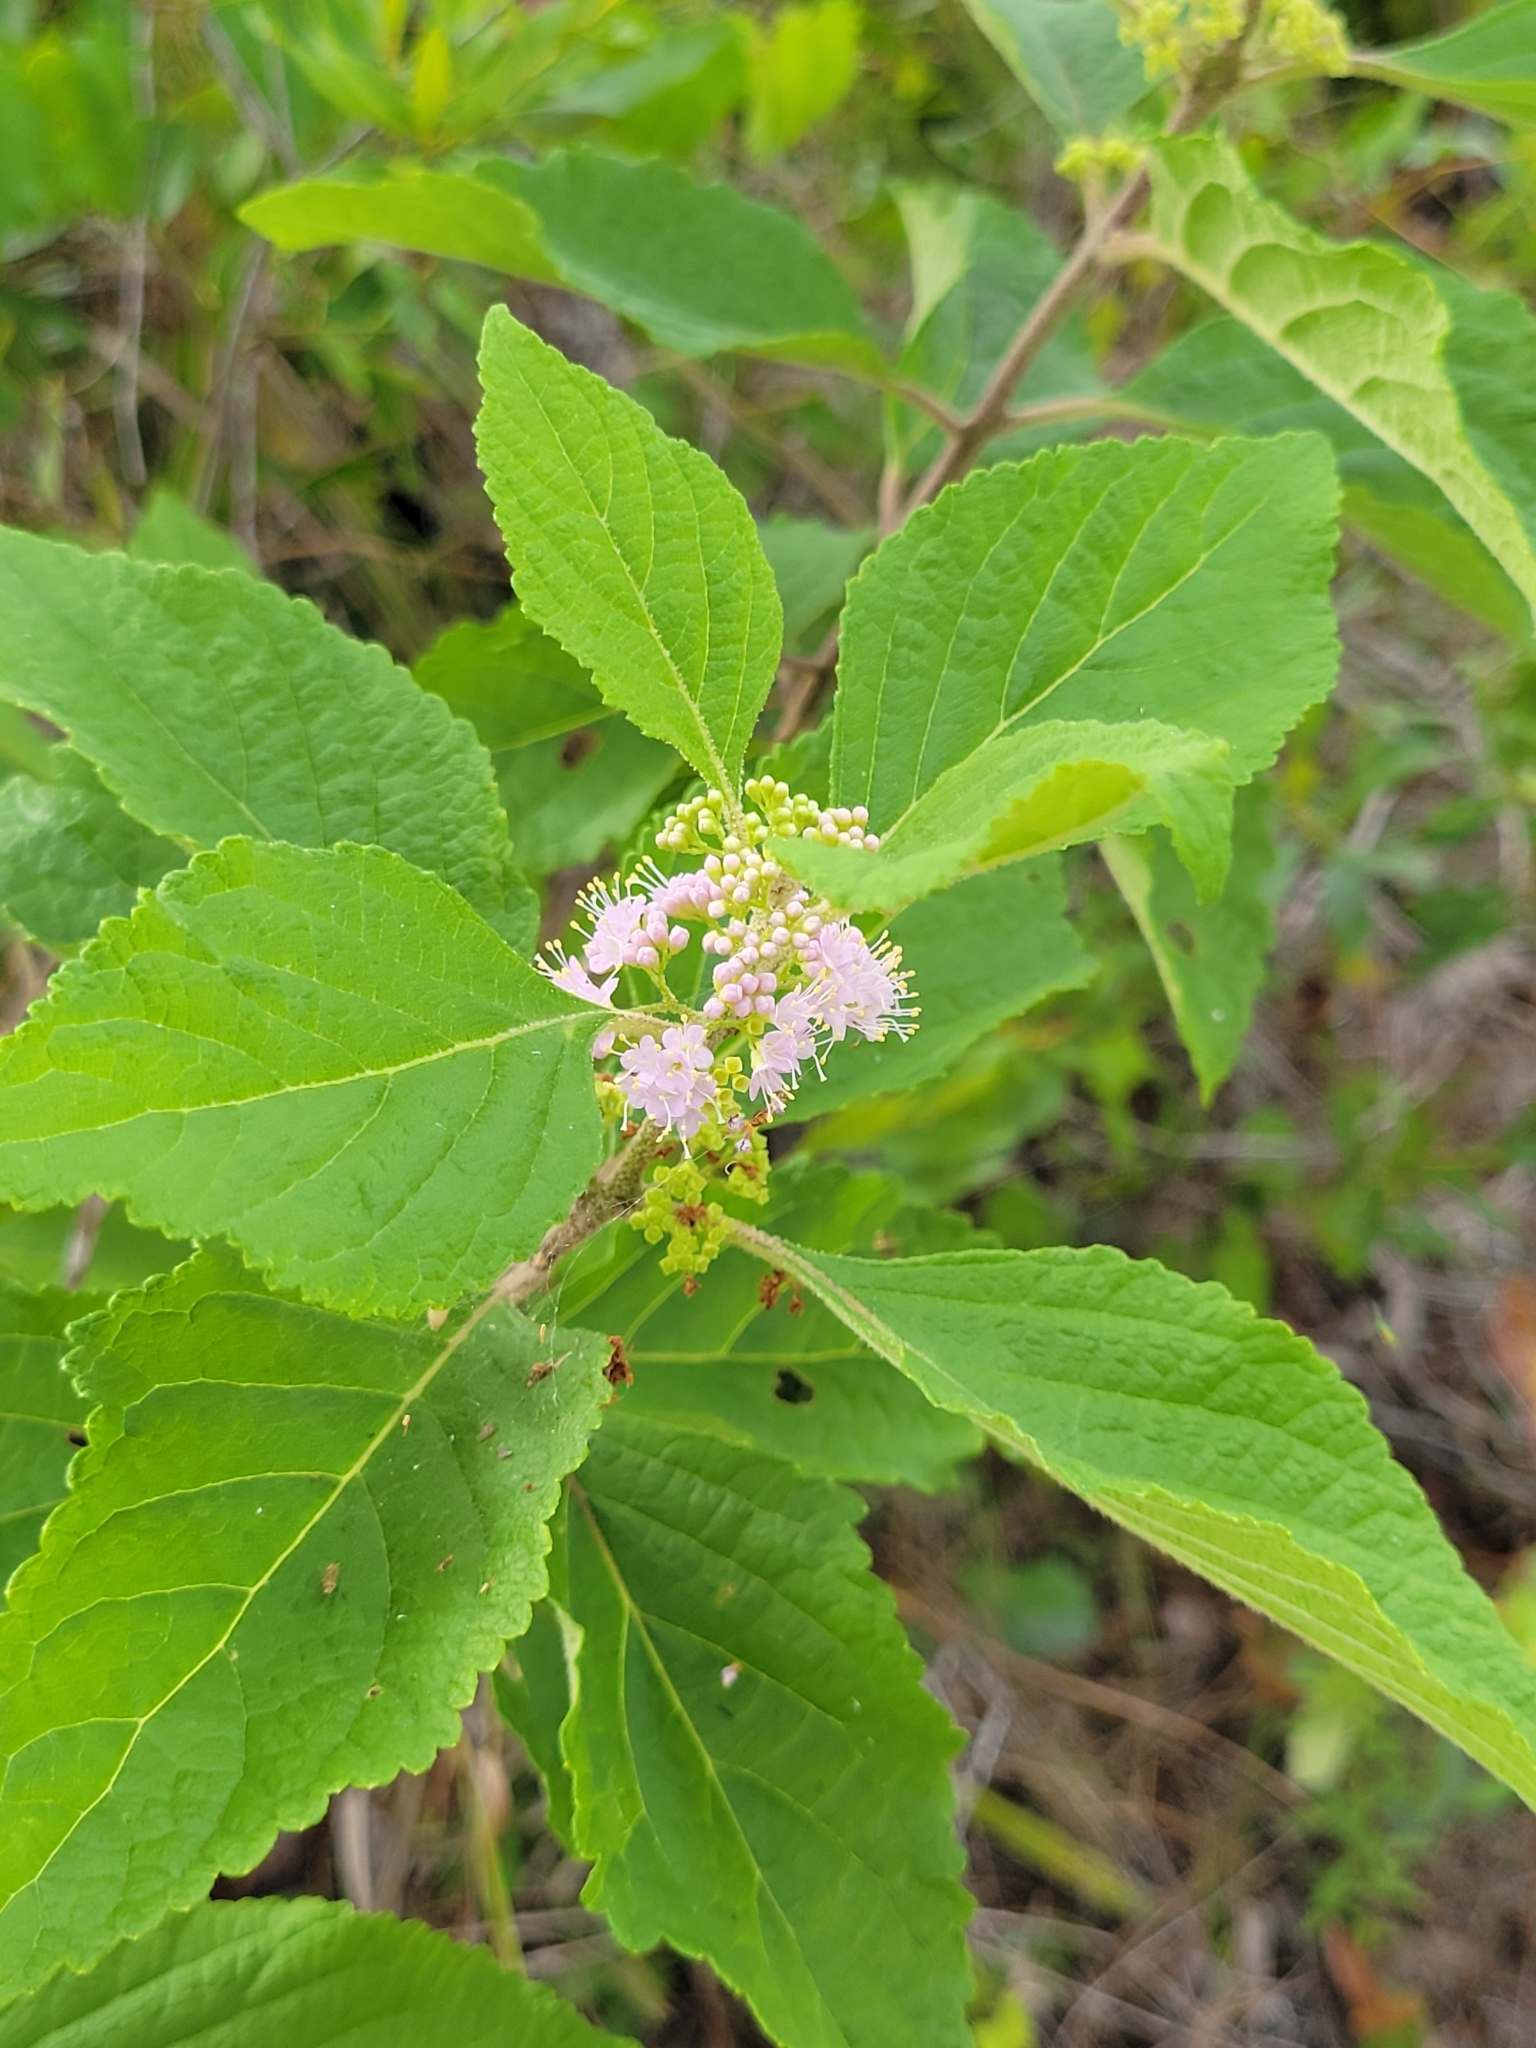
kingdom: Plantae
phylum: Tracheophyta
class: Magnoliopsida
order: Lamiales
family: Lamiaceae
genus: Callicarpa
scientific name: Callicarpa americana
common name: American beautyberry
